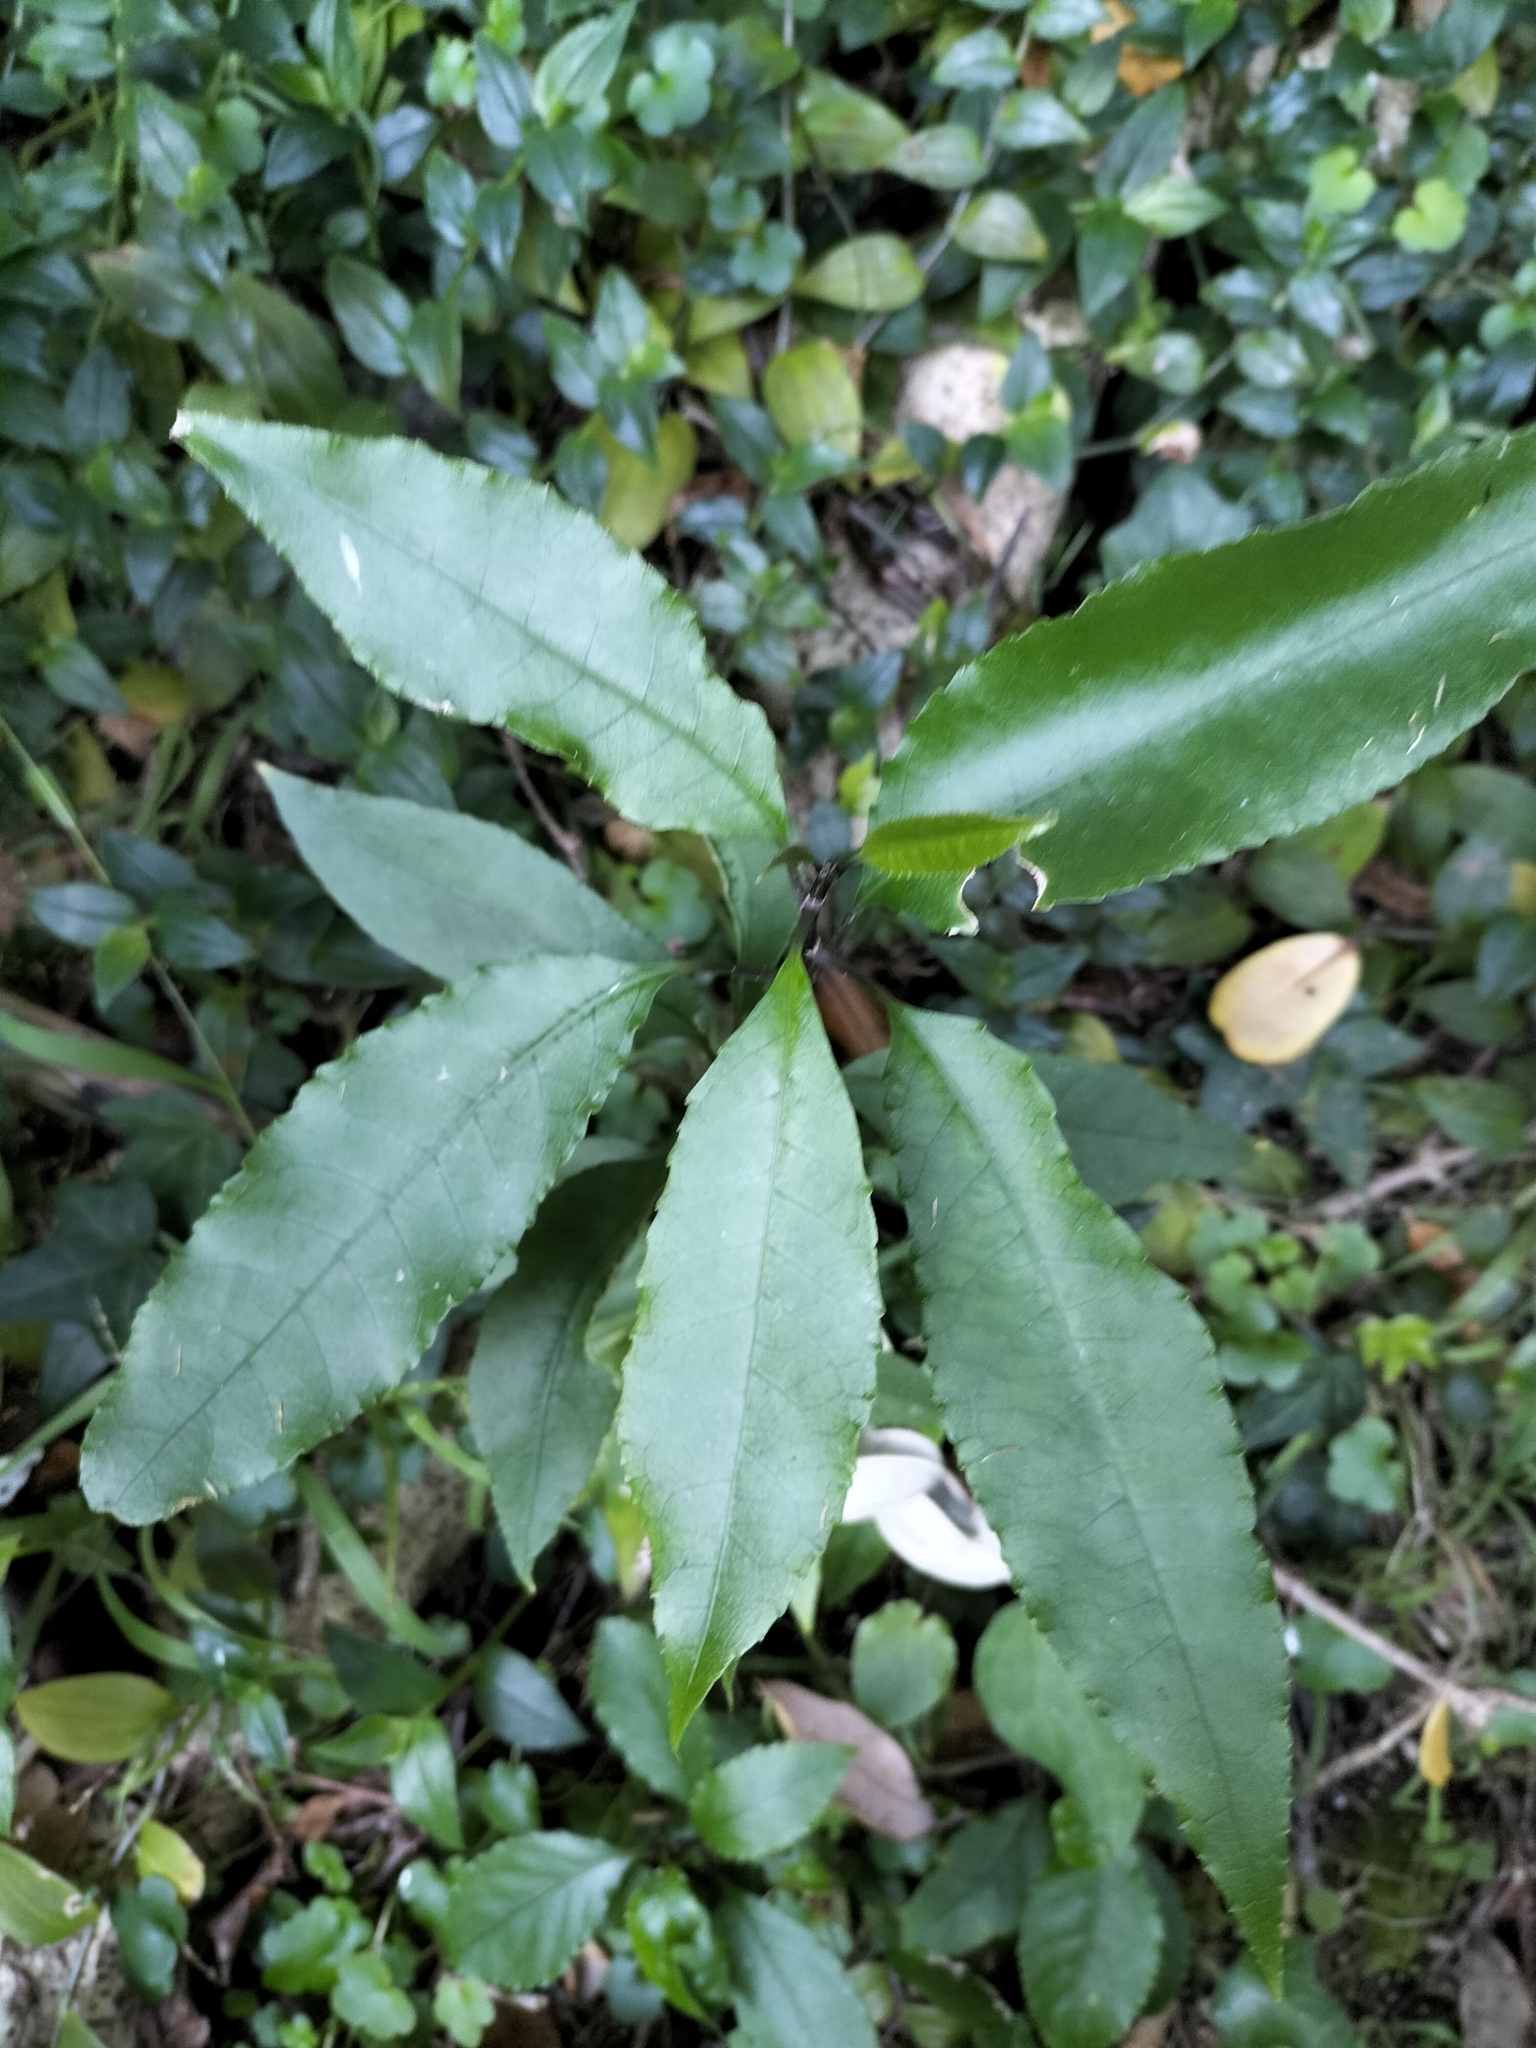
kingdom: Plantae
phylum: Tracheophyta
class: Magnoliopsida
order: Malpighiales
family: Violaceae
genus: Melicytus
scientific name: Melicytus ramiflorus
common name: Mahoe
